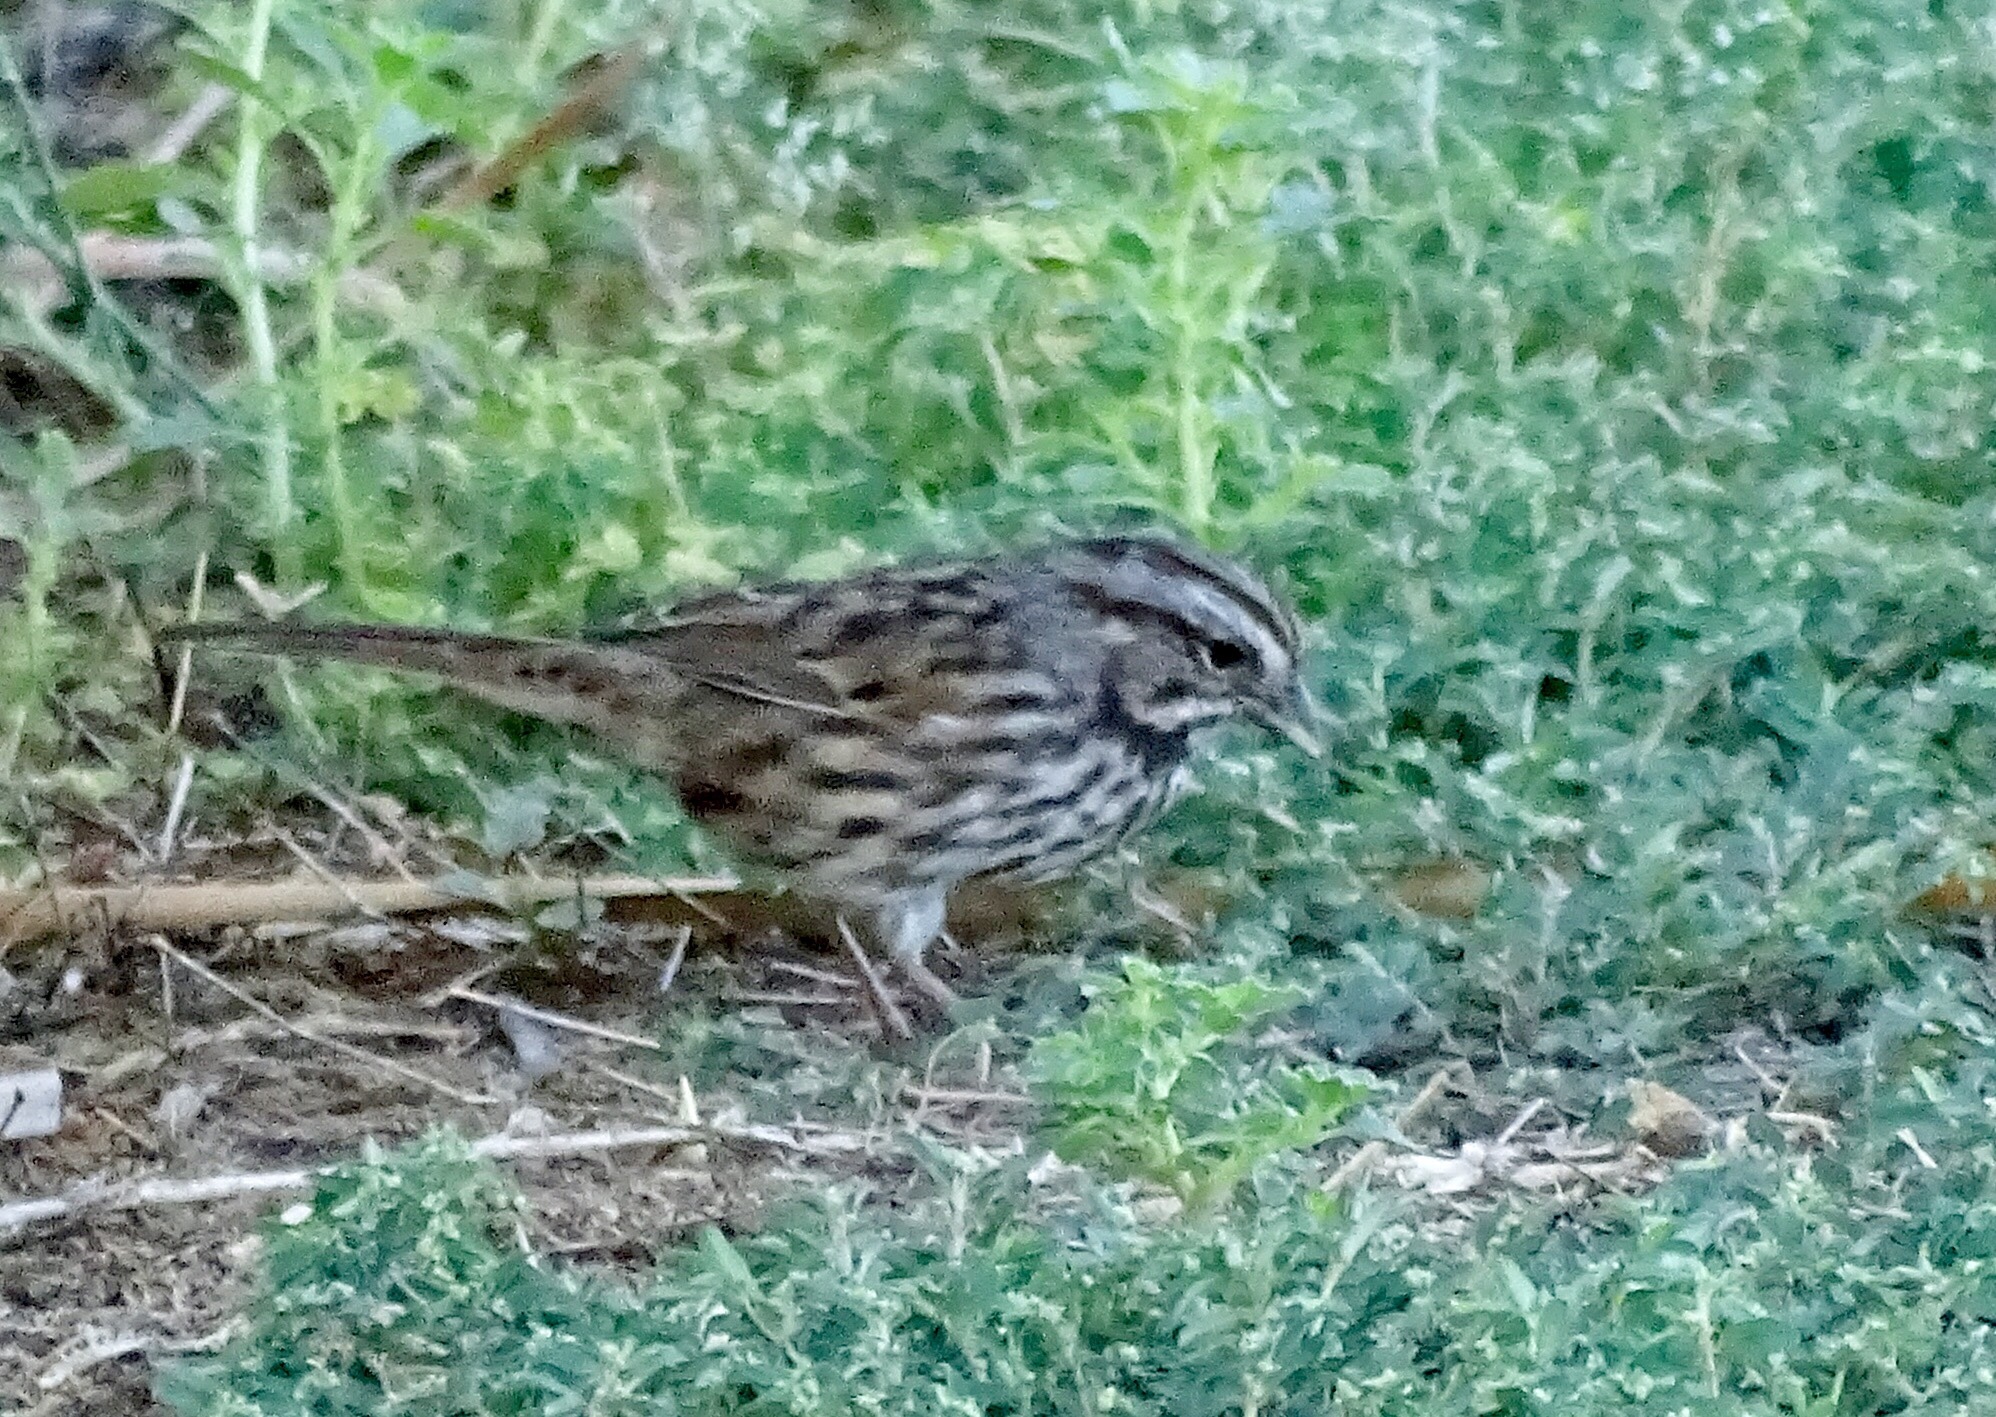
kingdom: Animalia
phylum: Chordata
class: Aves
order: Passeriformes
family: Passerellidae
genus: Melospiza
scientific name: Melospiza melodia
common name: Song sparrow
